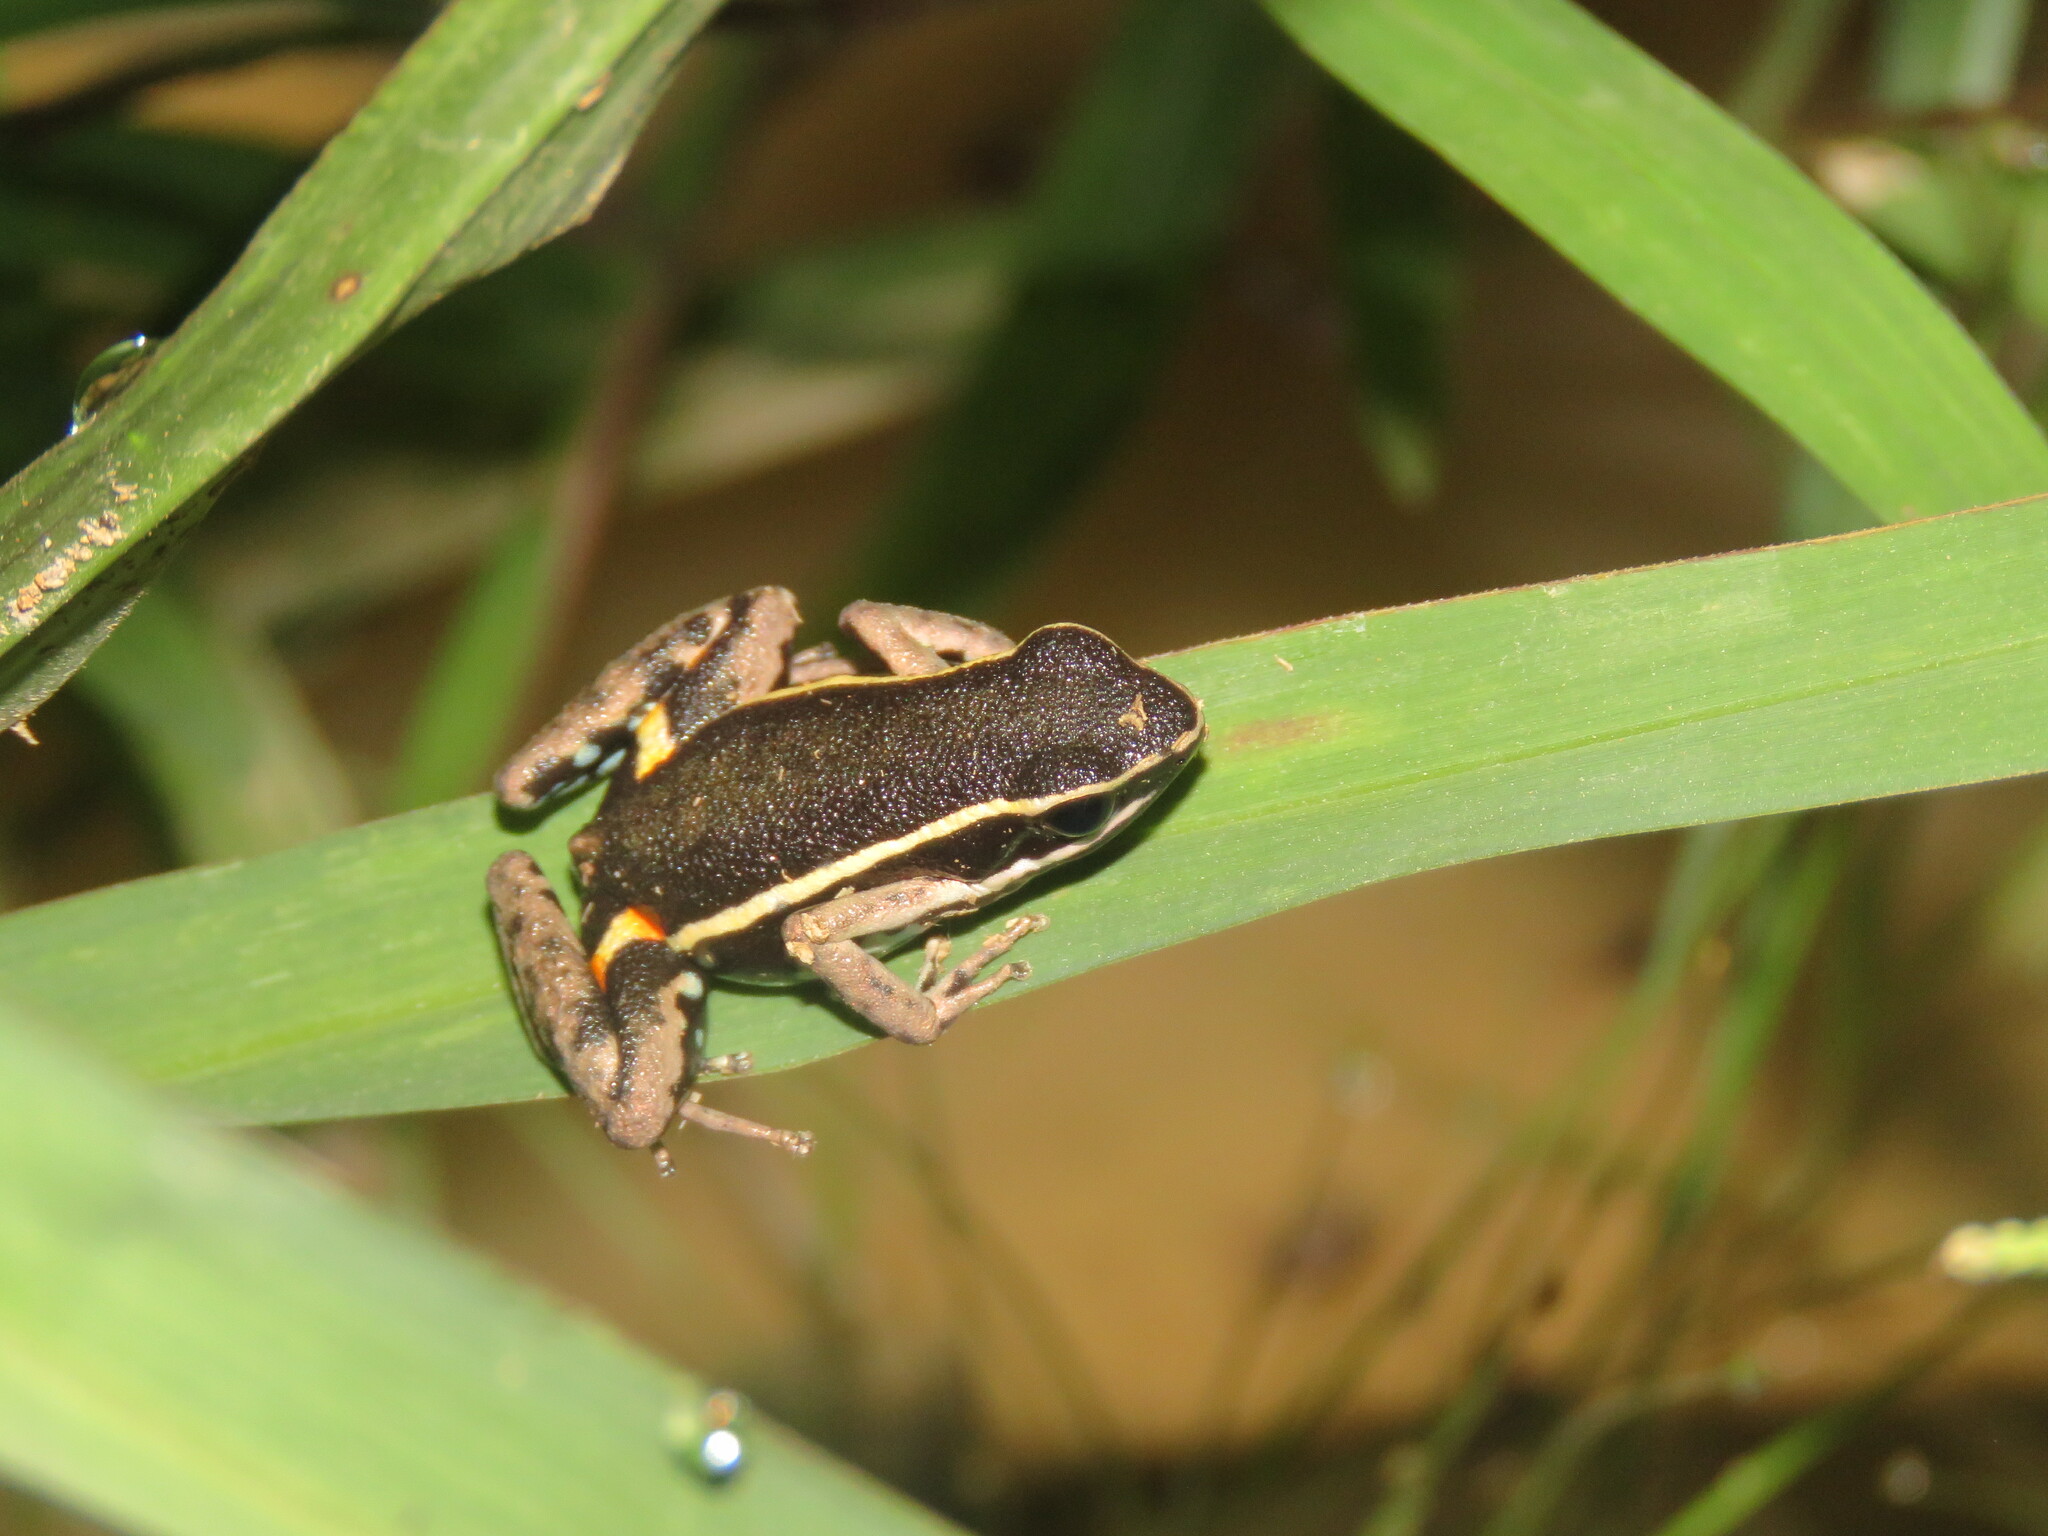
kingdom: Animalia
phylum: Chordata
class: Amphibia
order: Anura
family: Aromobatidae
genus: Allobates
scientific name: Allobates femoralis
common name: Brilliant-thighed poison frog
